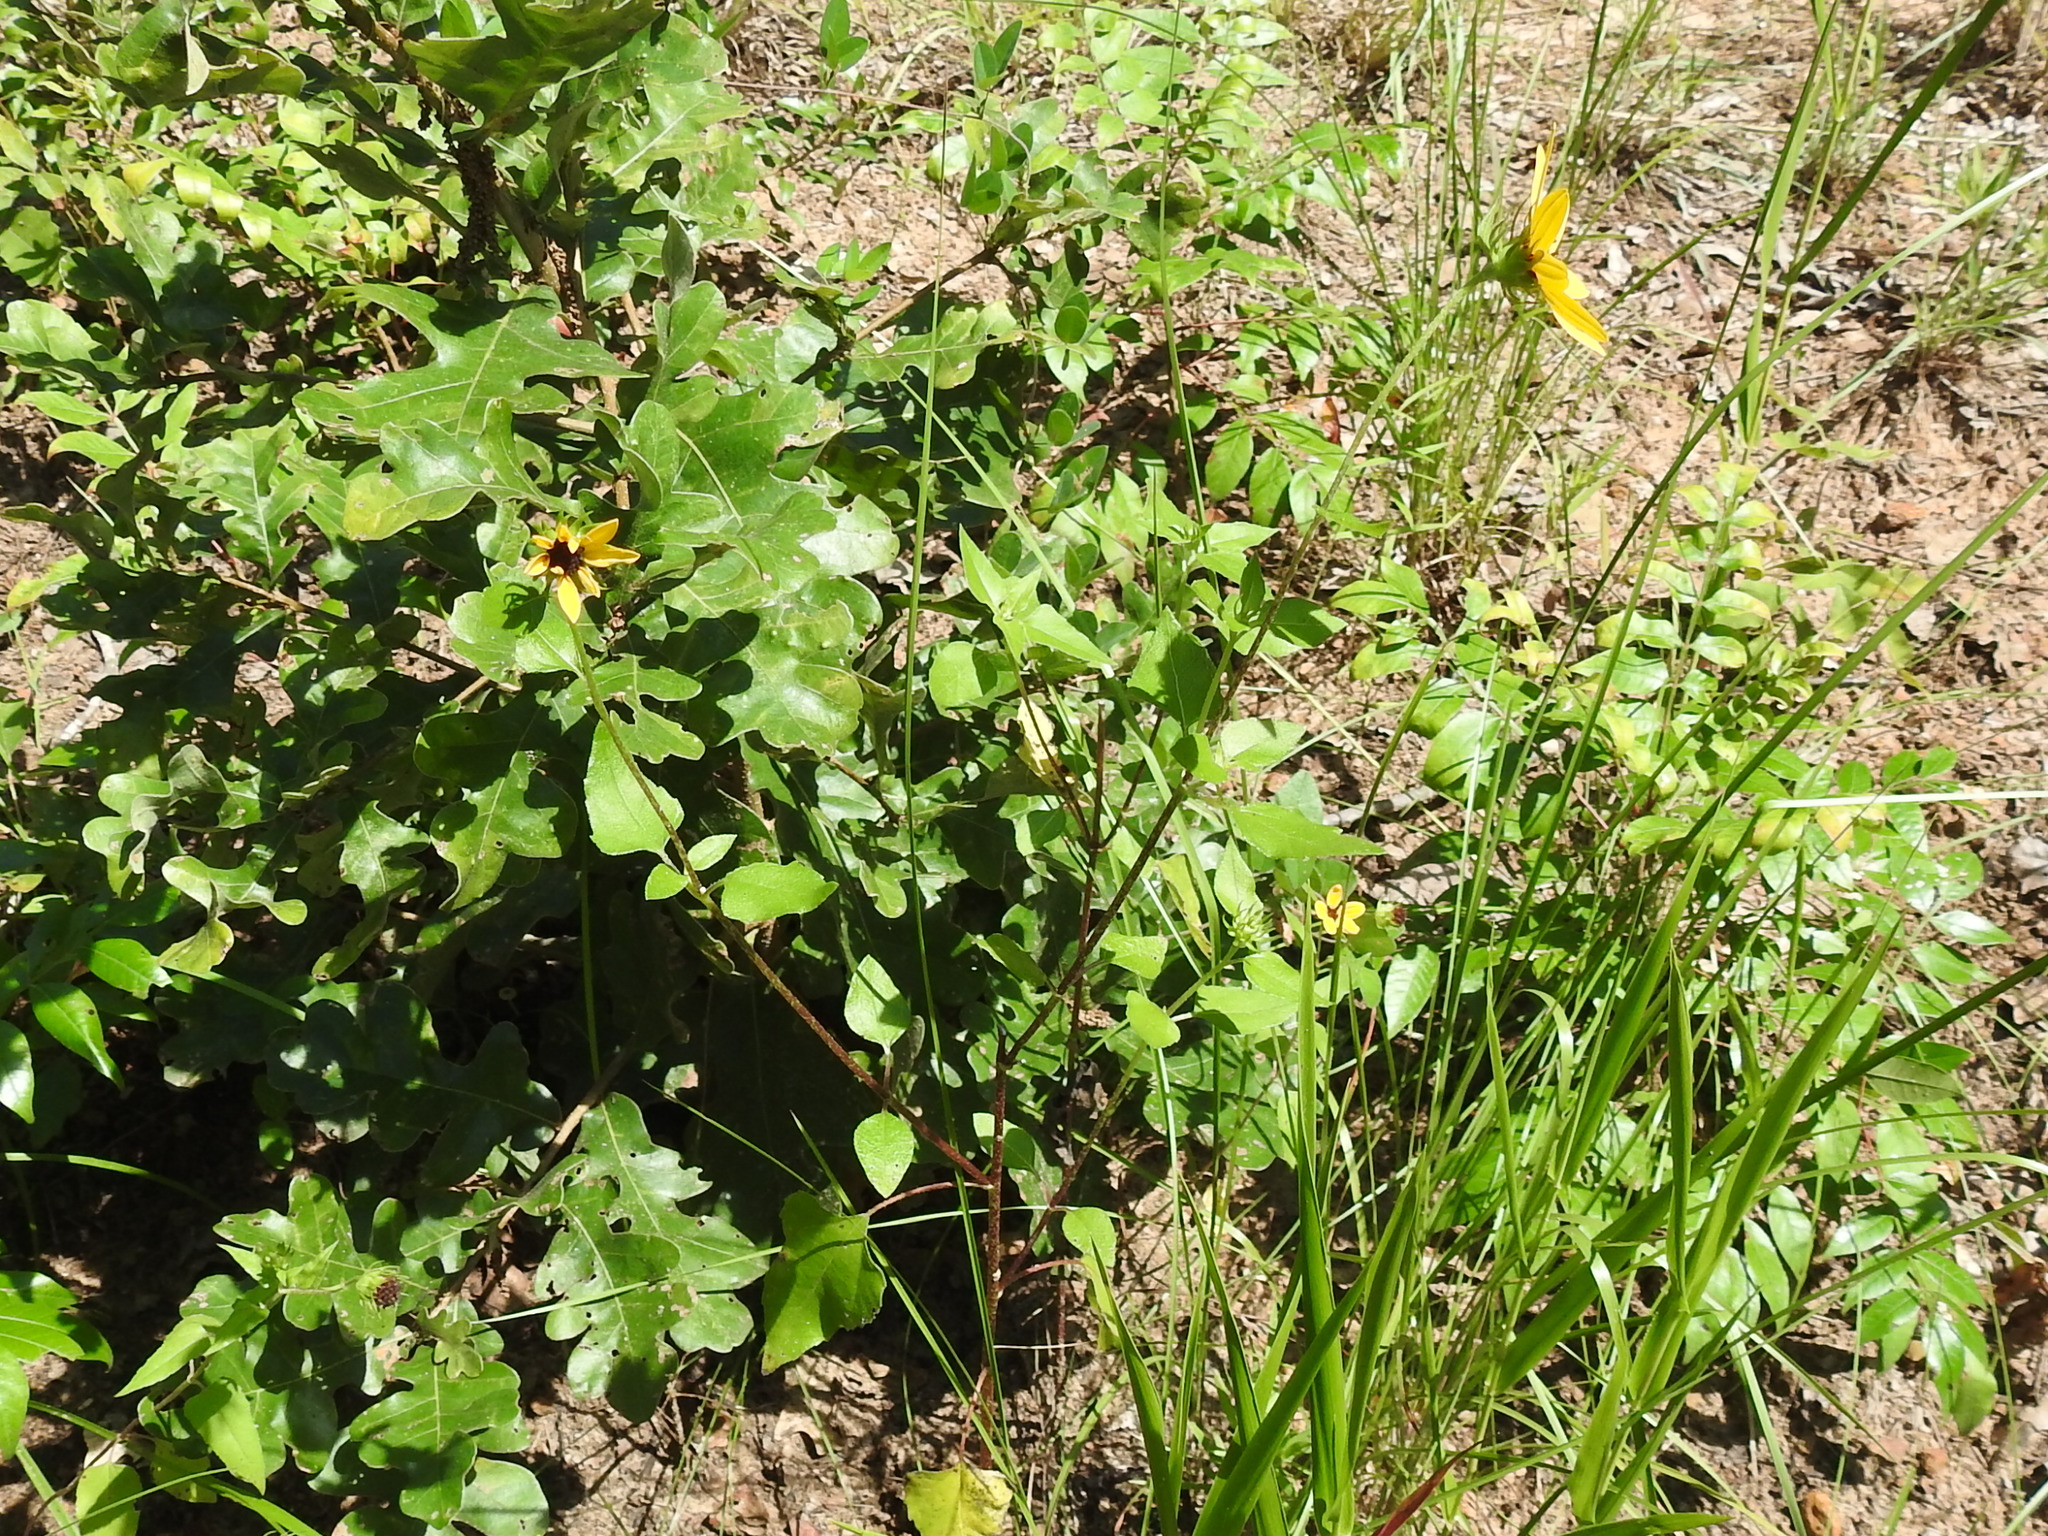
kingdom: Plantae
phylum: Tracheophyta
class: Magnoliopsida
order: Asterales
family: Asteraceae
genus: Helianthus
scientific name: Helianthus debilis
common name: Weak sunflower
